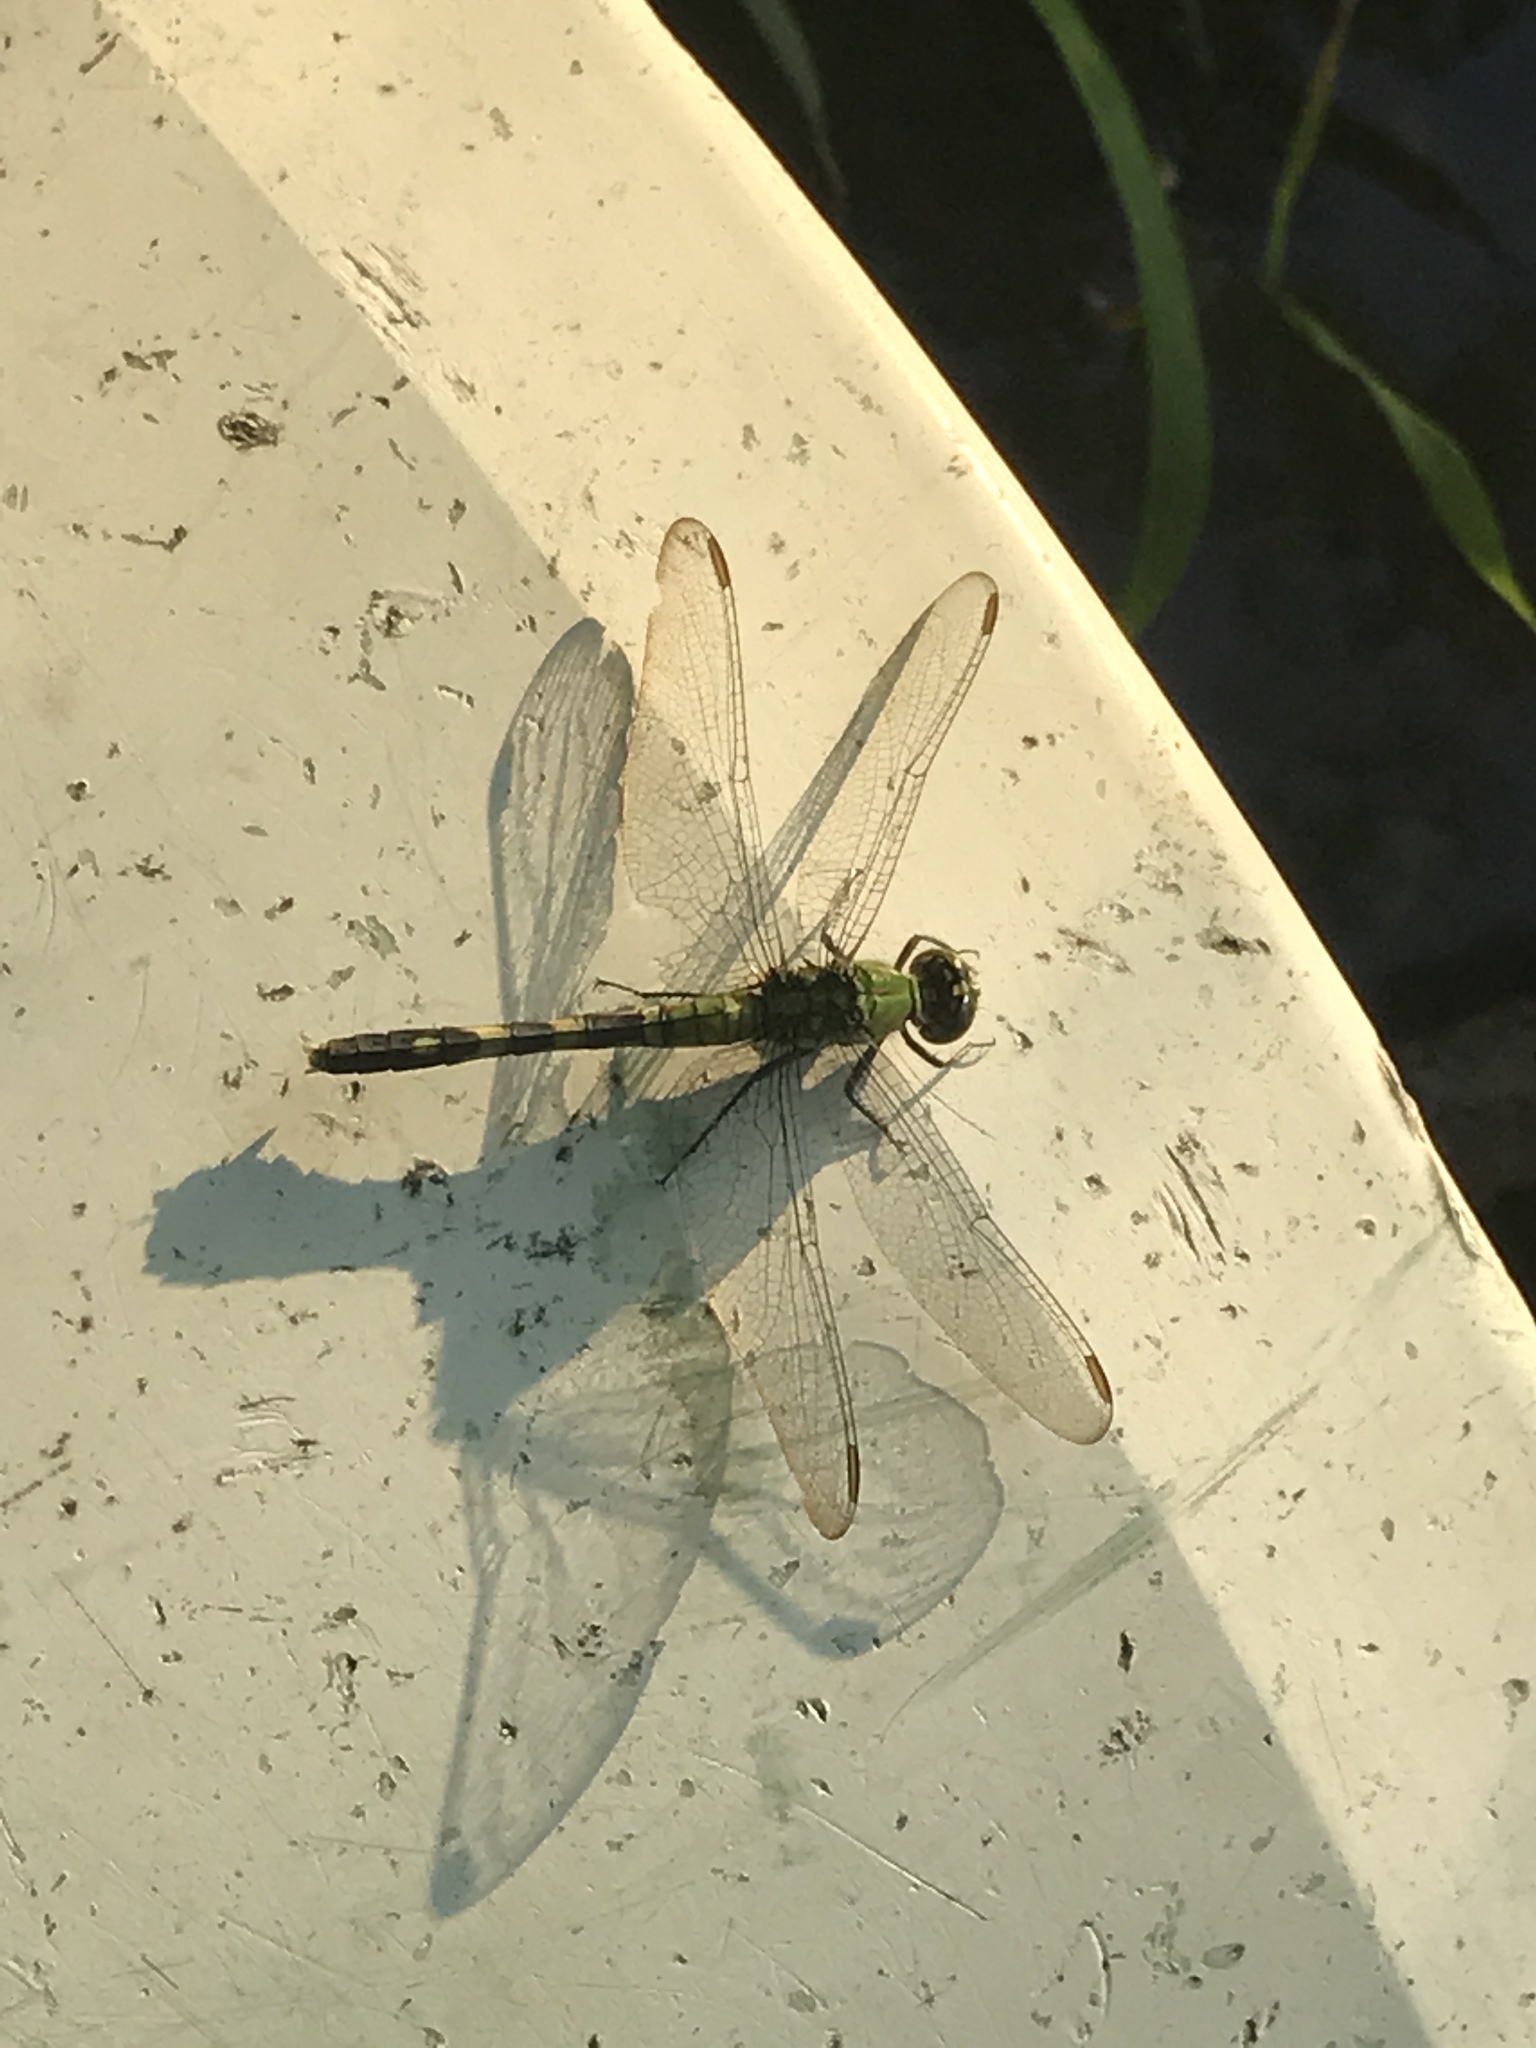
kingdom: Animalia
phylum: Arthropoda
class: Insecta
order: Odonata
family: Libellulidae
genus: Erythemis
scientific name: Erythemis simplicicollis
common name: Eastern pondhawk
